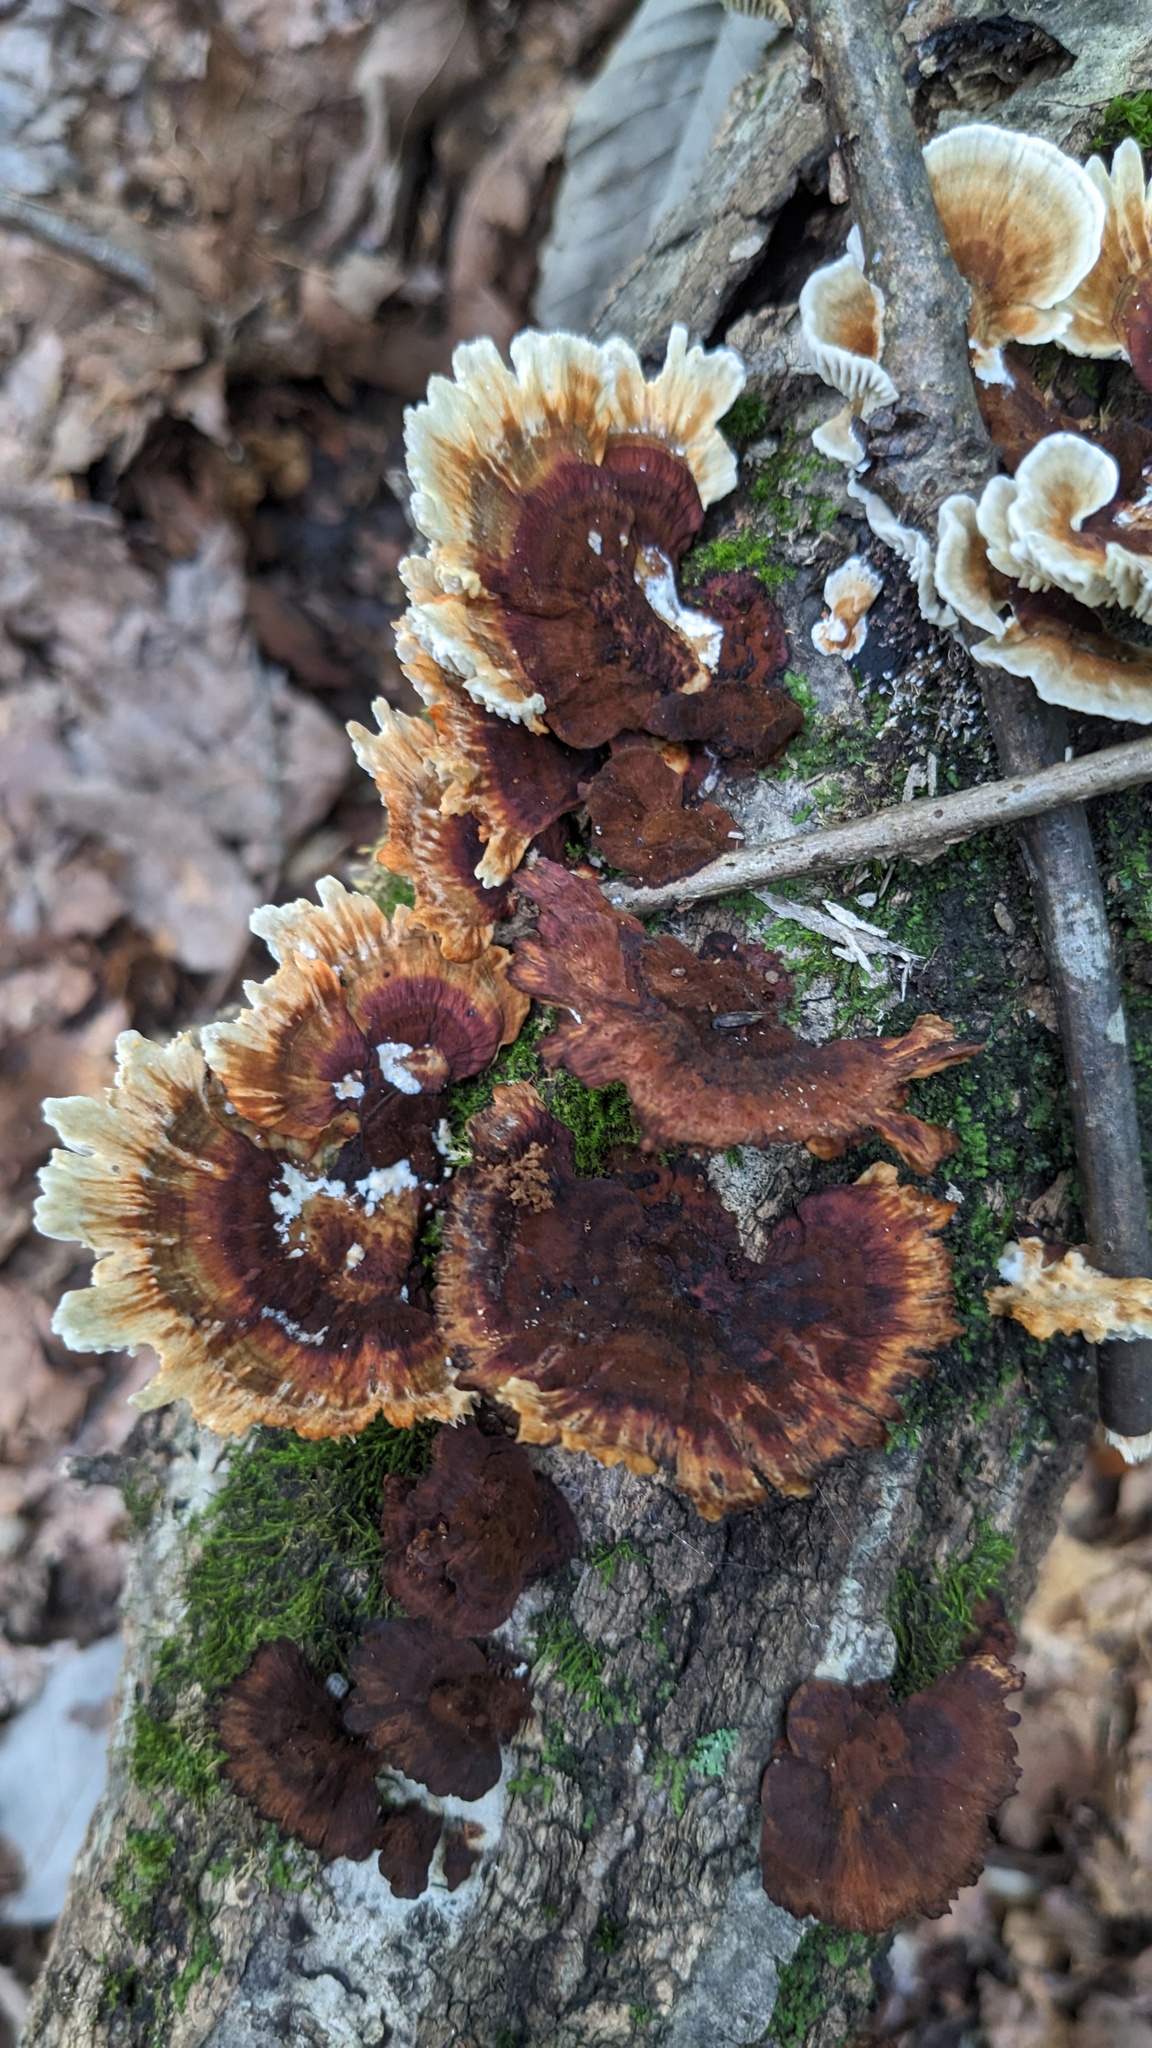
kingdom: Fungi
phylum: Basidiomycota
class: Agaricomycetes
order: Polyporales
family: Polyporaceae
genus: Daedaleopsis
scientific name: Daedaleopsis tricolor
